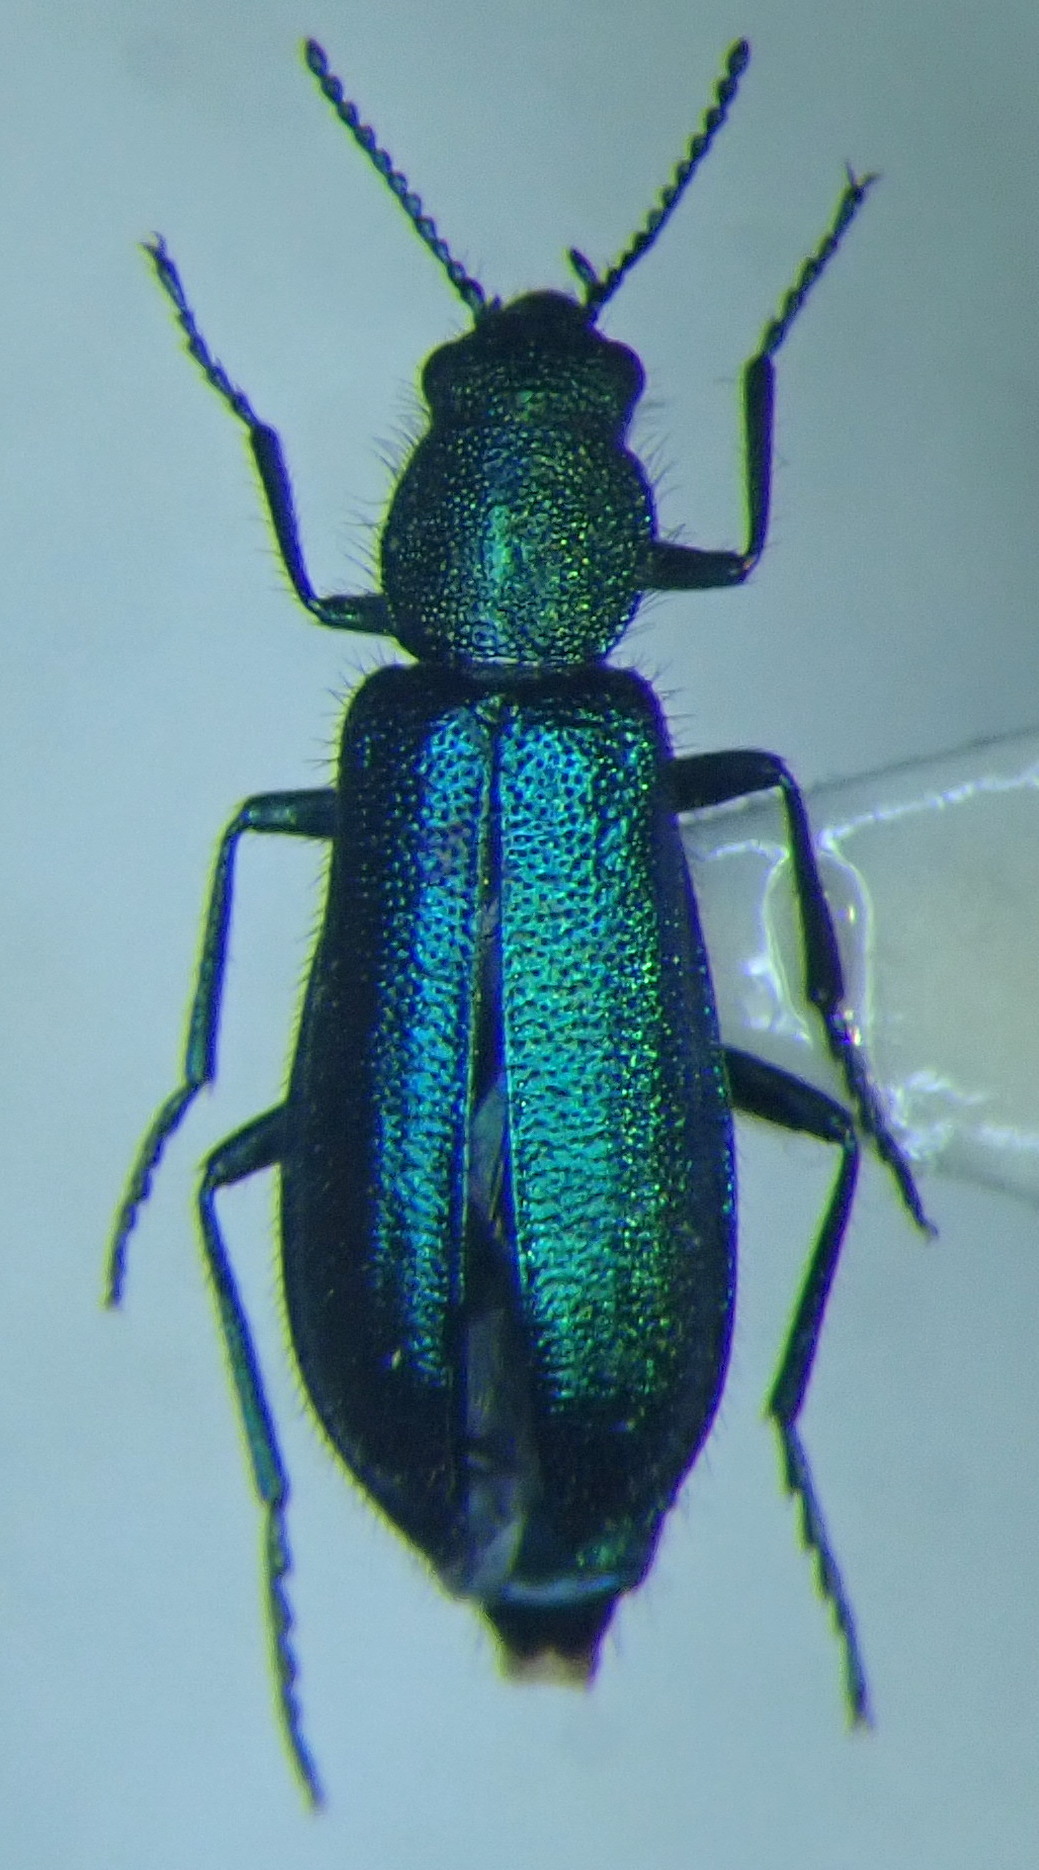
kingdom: Animalia
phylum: Arthropoda
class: Insecta
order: Coleoptera
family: Dasytidae
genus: Psilothrix
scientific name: Psilothrix viridicoerulea
